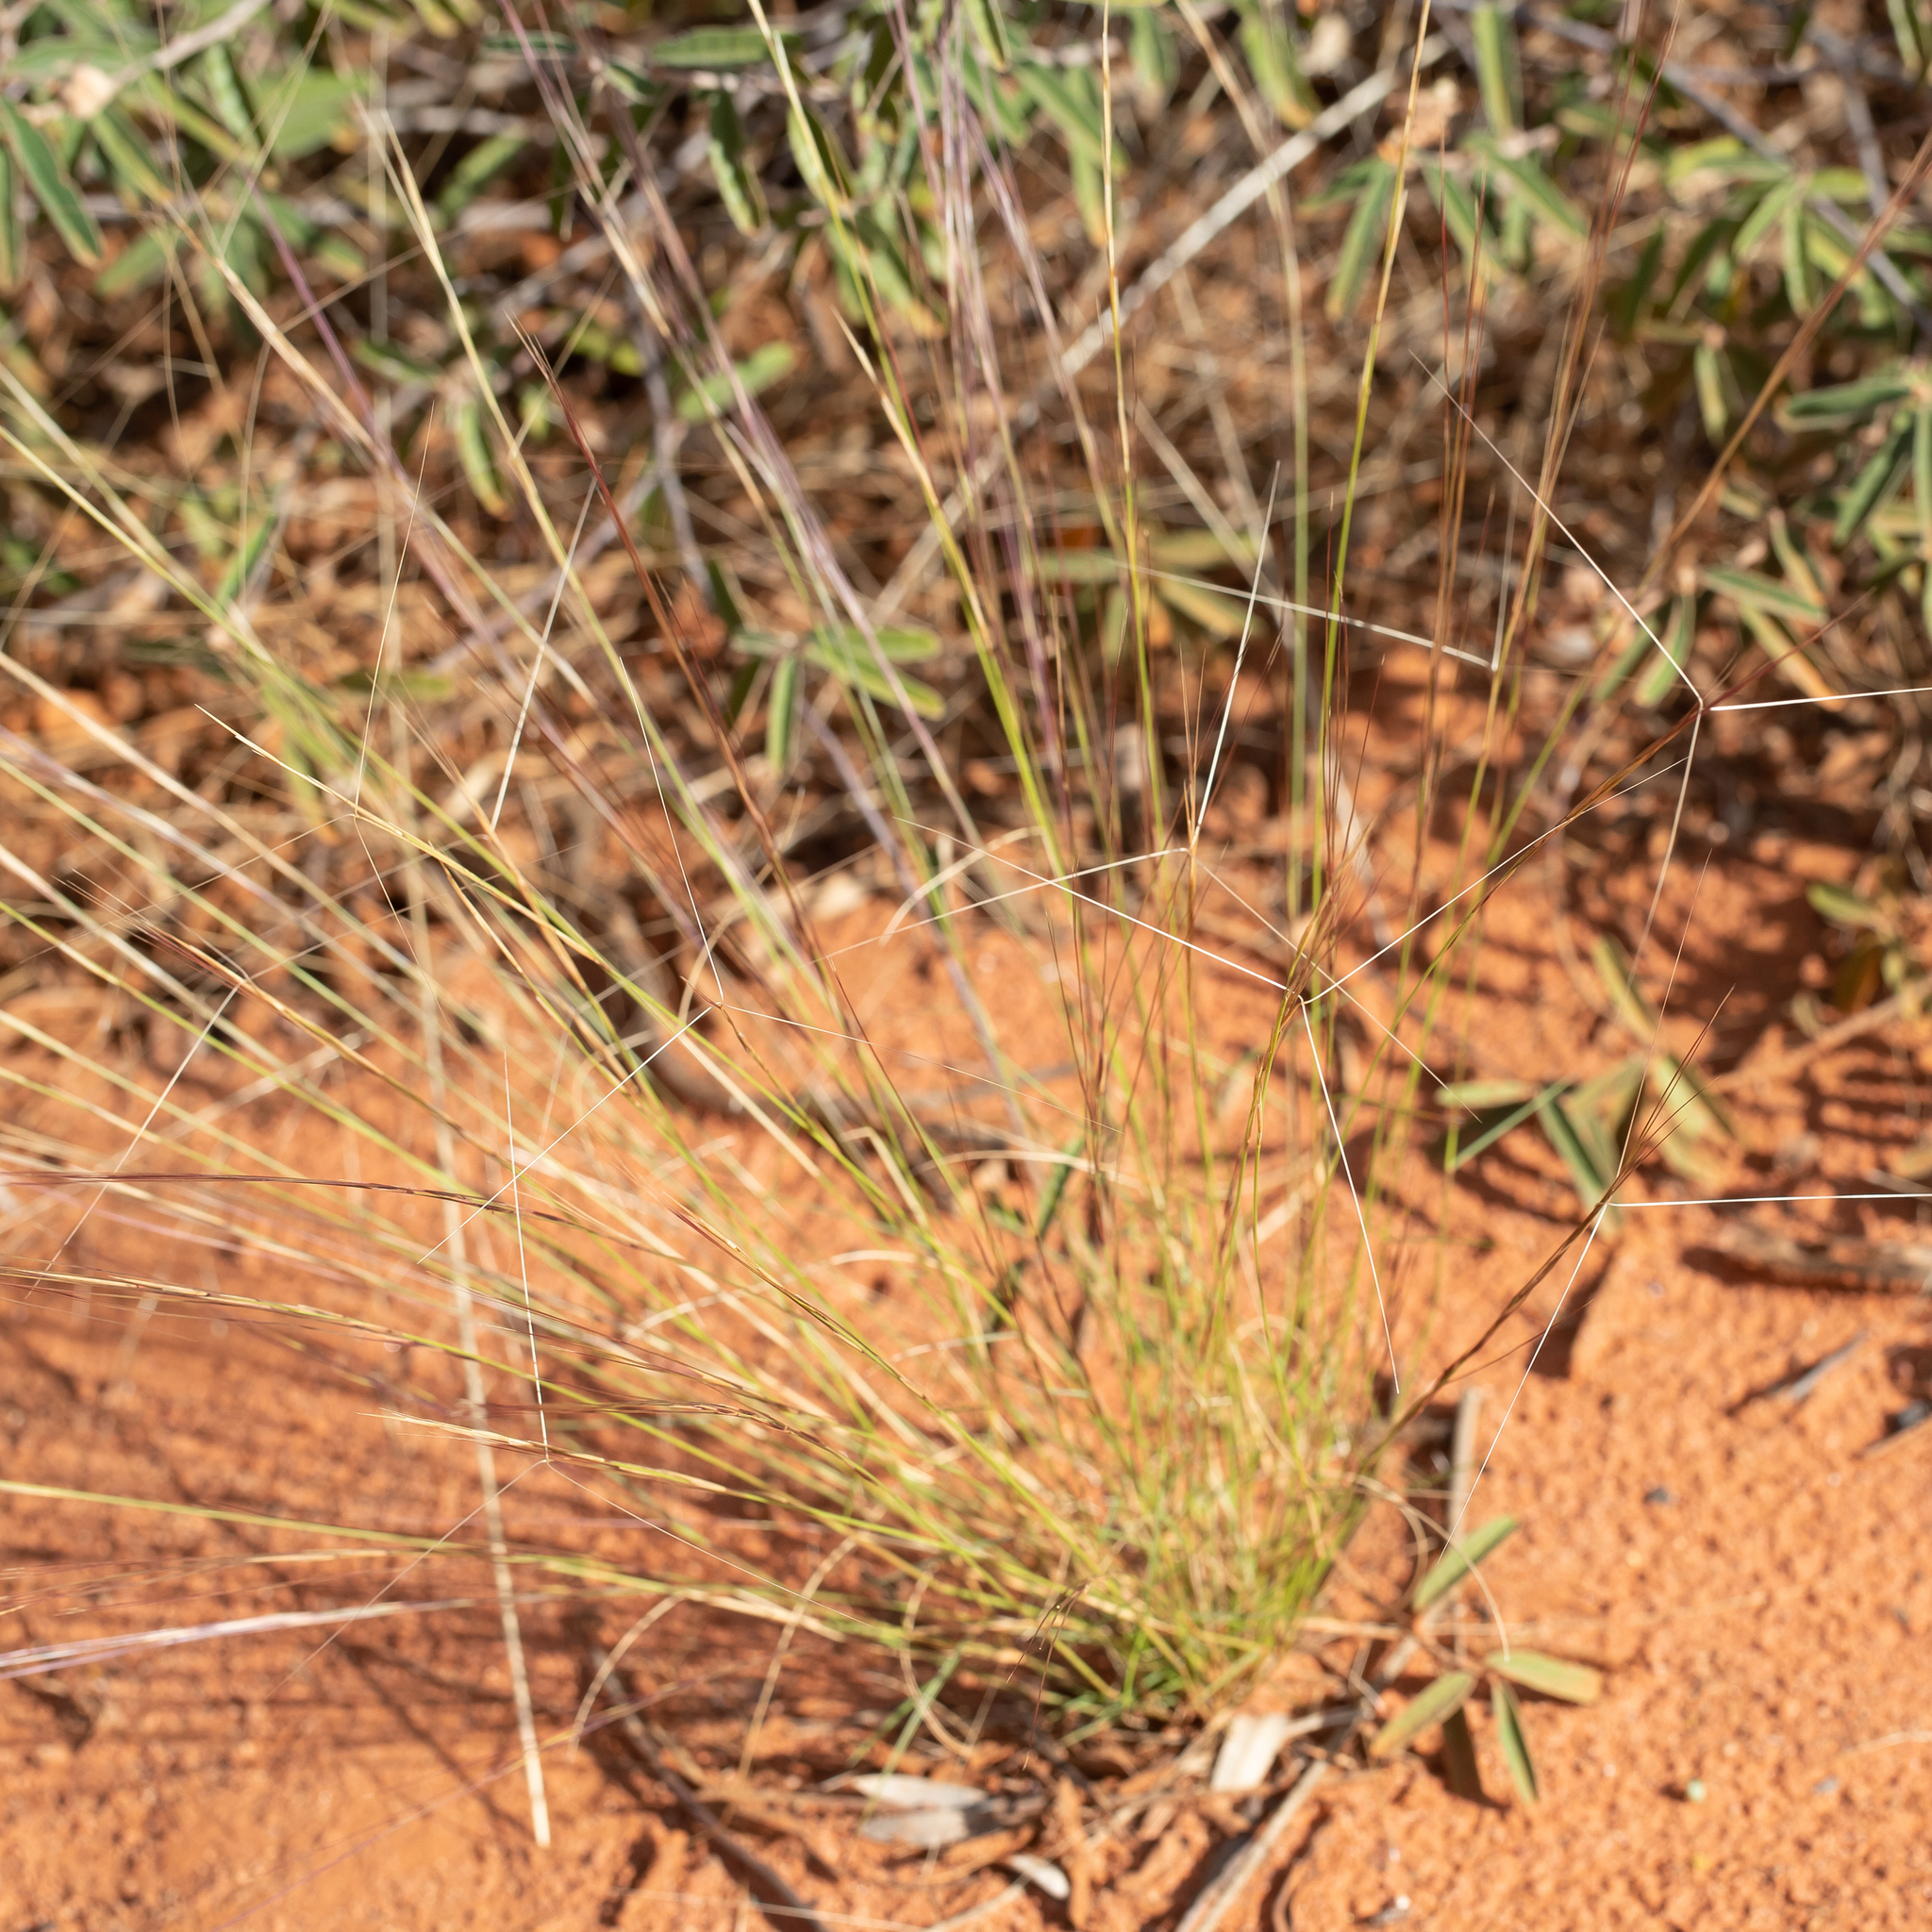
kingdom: Plantae
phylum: Tracheophyta
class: Liliopsida
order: Poales
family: Poaceae
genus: Aristida
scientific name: Aristida holathera
